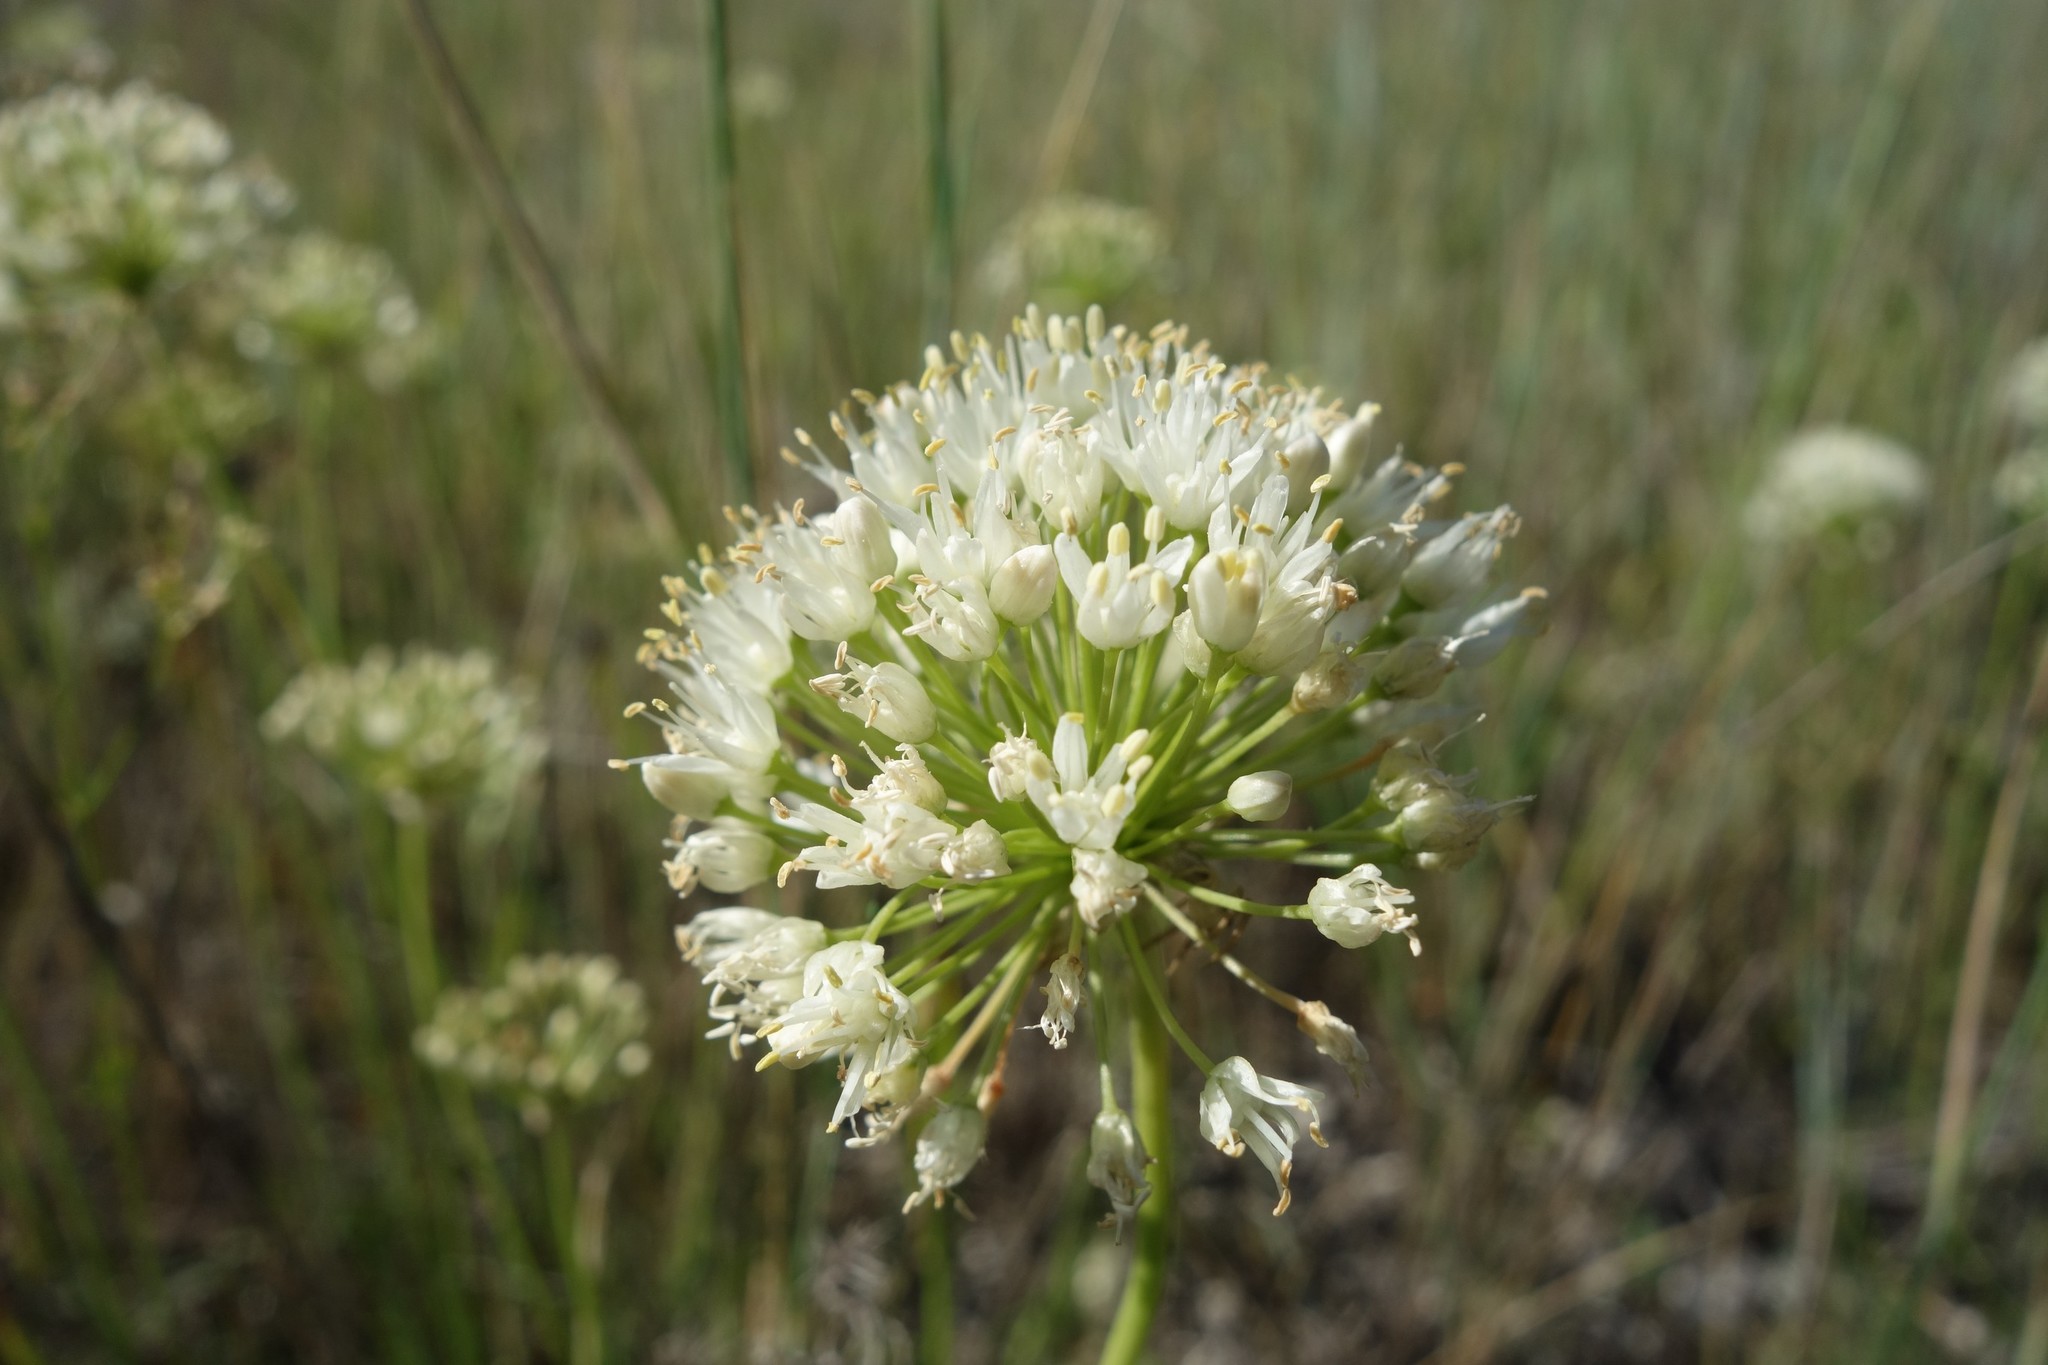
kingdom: Plantae
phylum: Tracheophyta
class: Liliopsida
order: Asparagales
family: Amaryllidaceae
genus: Allium
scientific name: Allium flavescens
